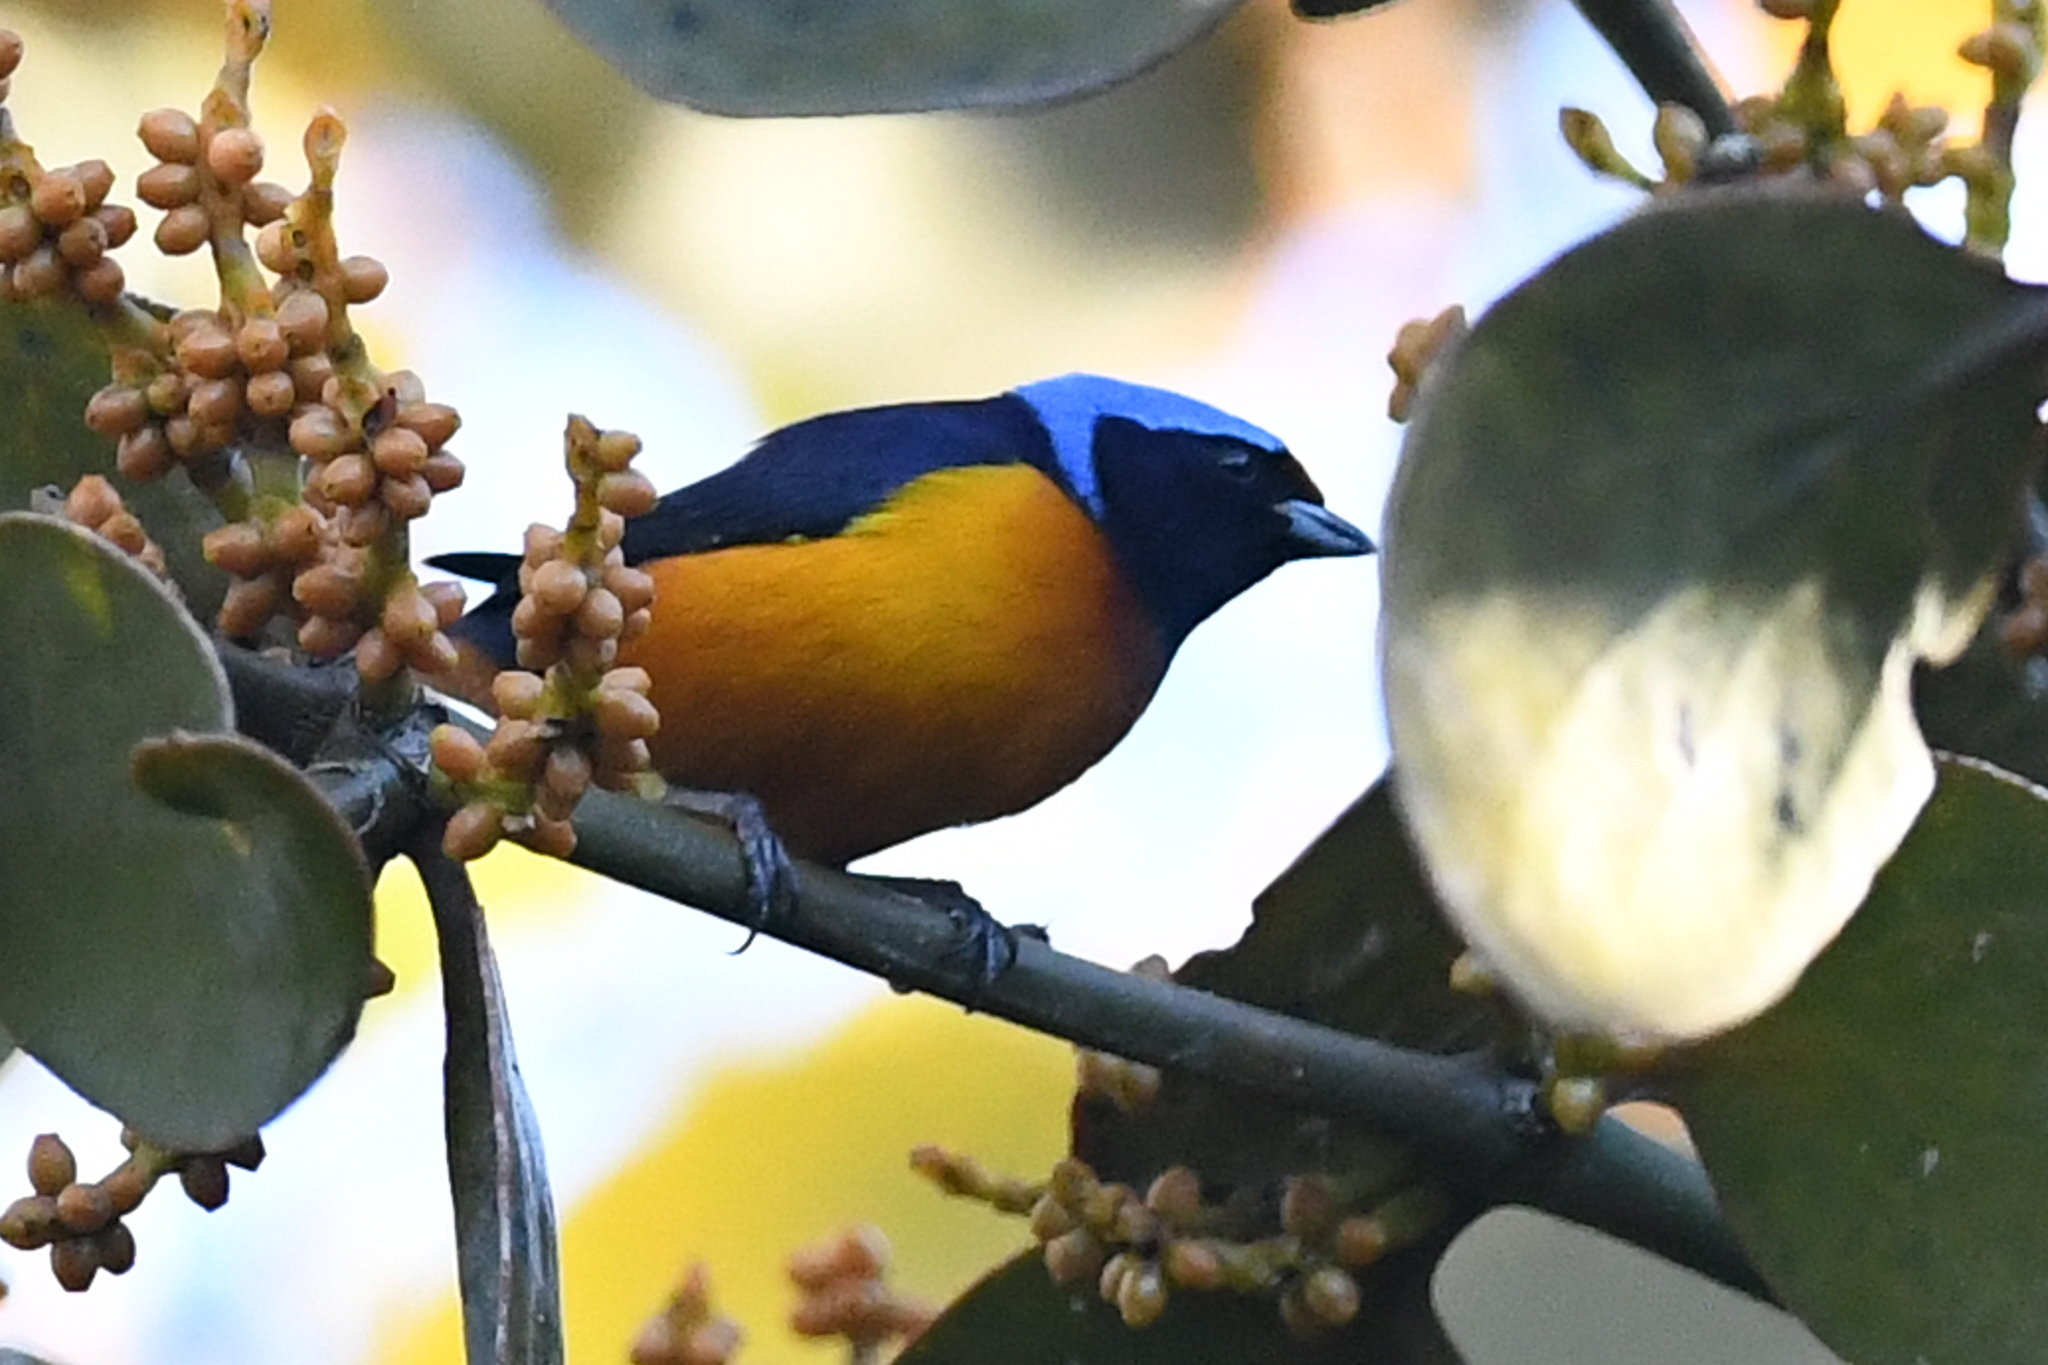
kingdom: Animalia
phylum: Chordata
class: Aves
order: Passeriformes
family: Fringillidae
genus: Euphonia
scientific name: Euphonia elegantissima
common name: Elegant euphonia
